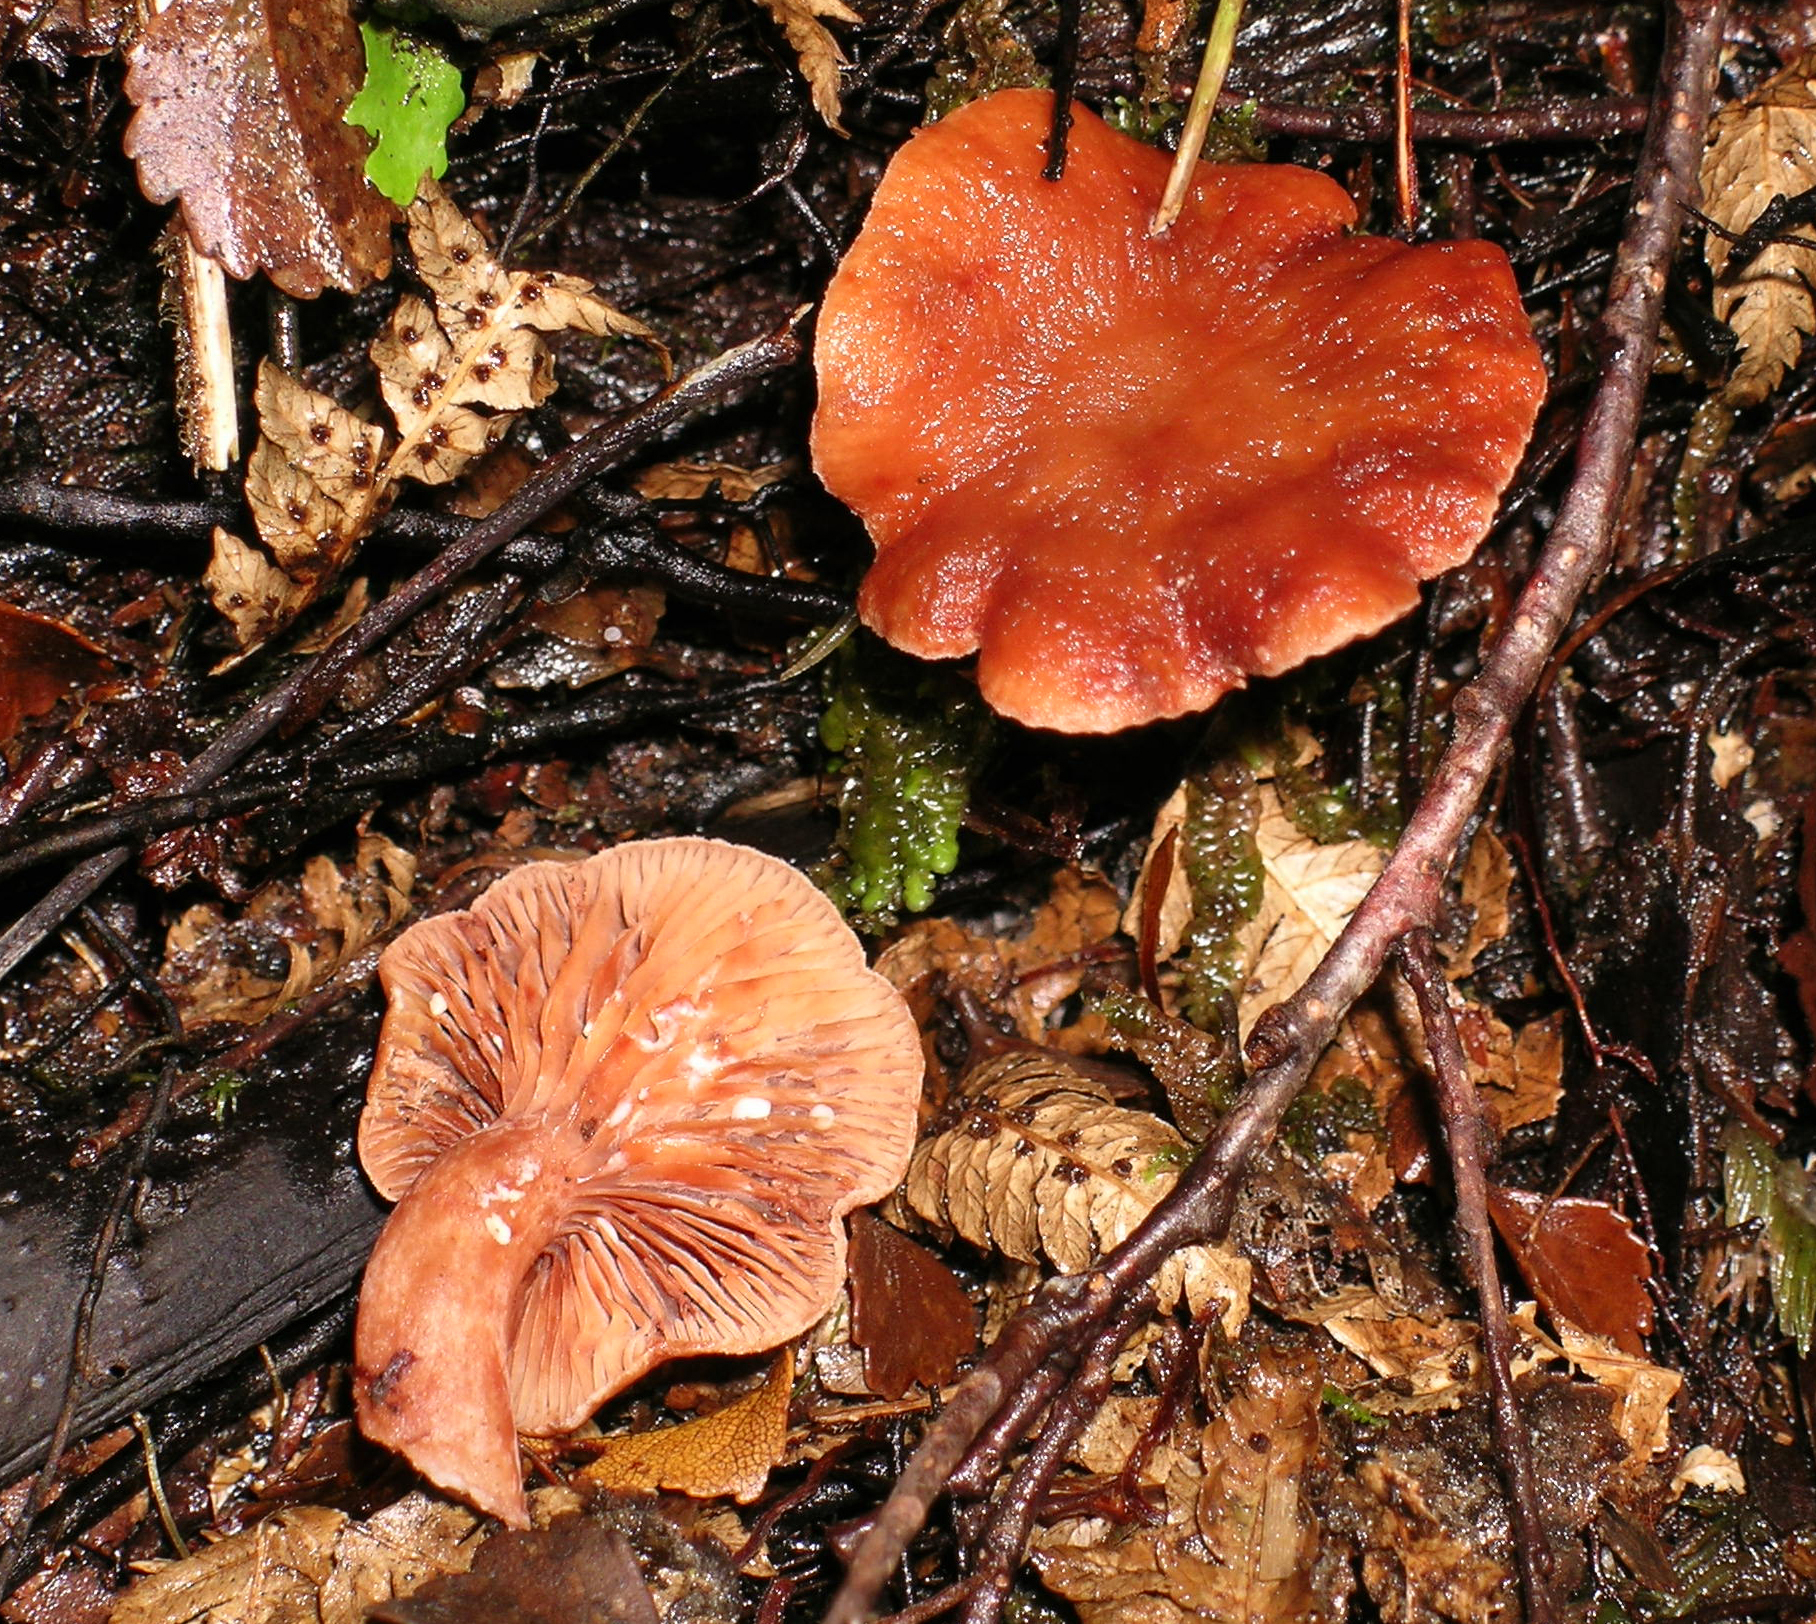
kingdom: Fungi
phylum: Basidiomycota
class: Agaricomycetes
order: Russulales
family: Russulaceae
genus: Lactarius
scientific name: Lactarius umerensis
